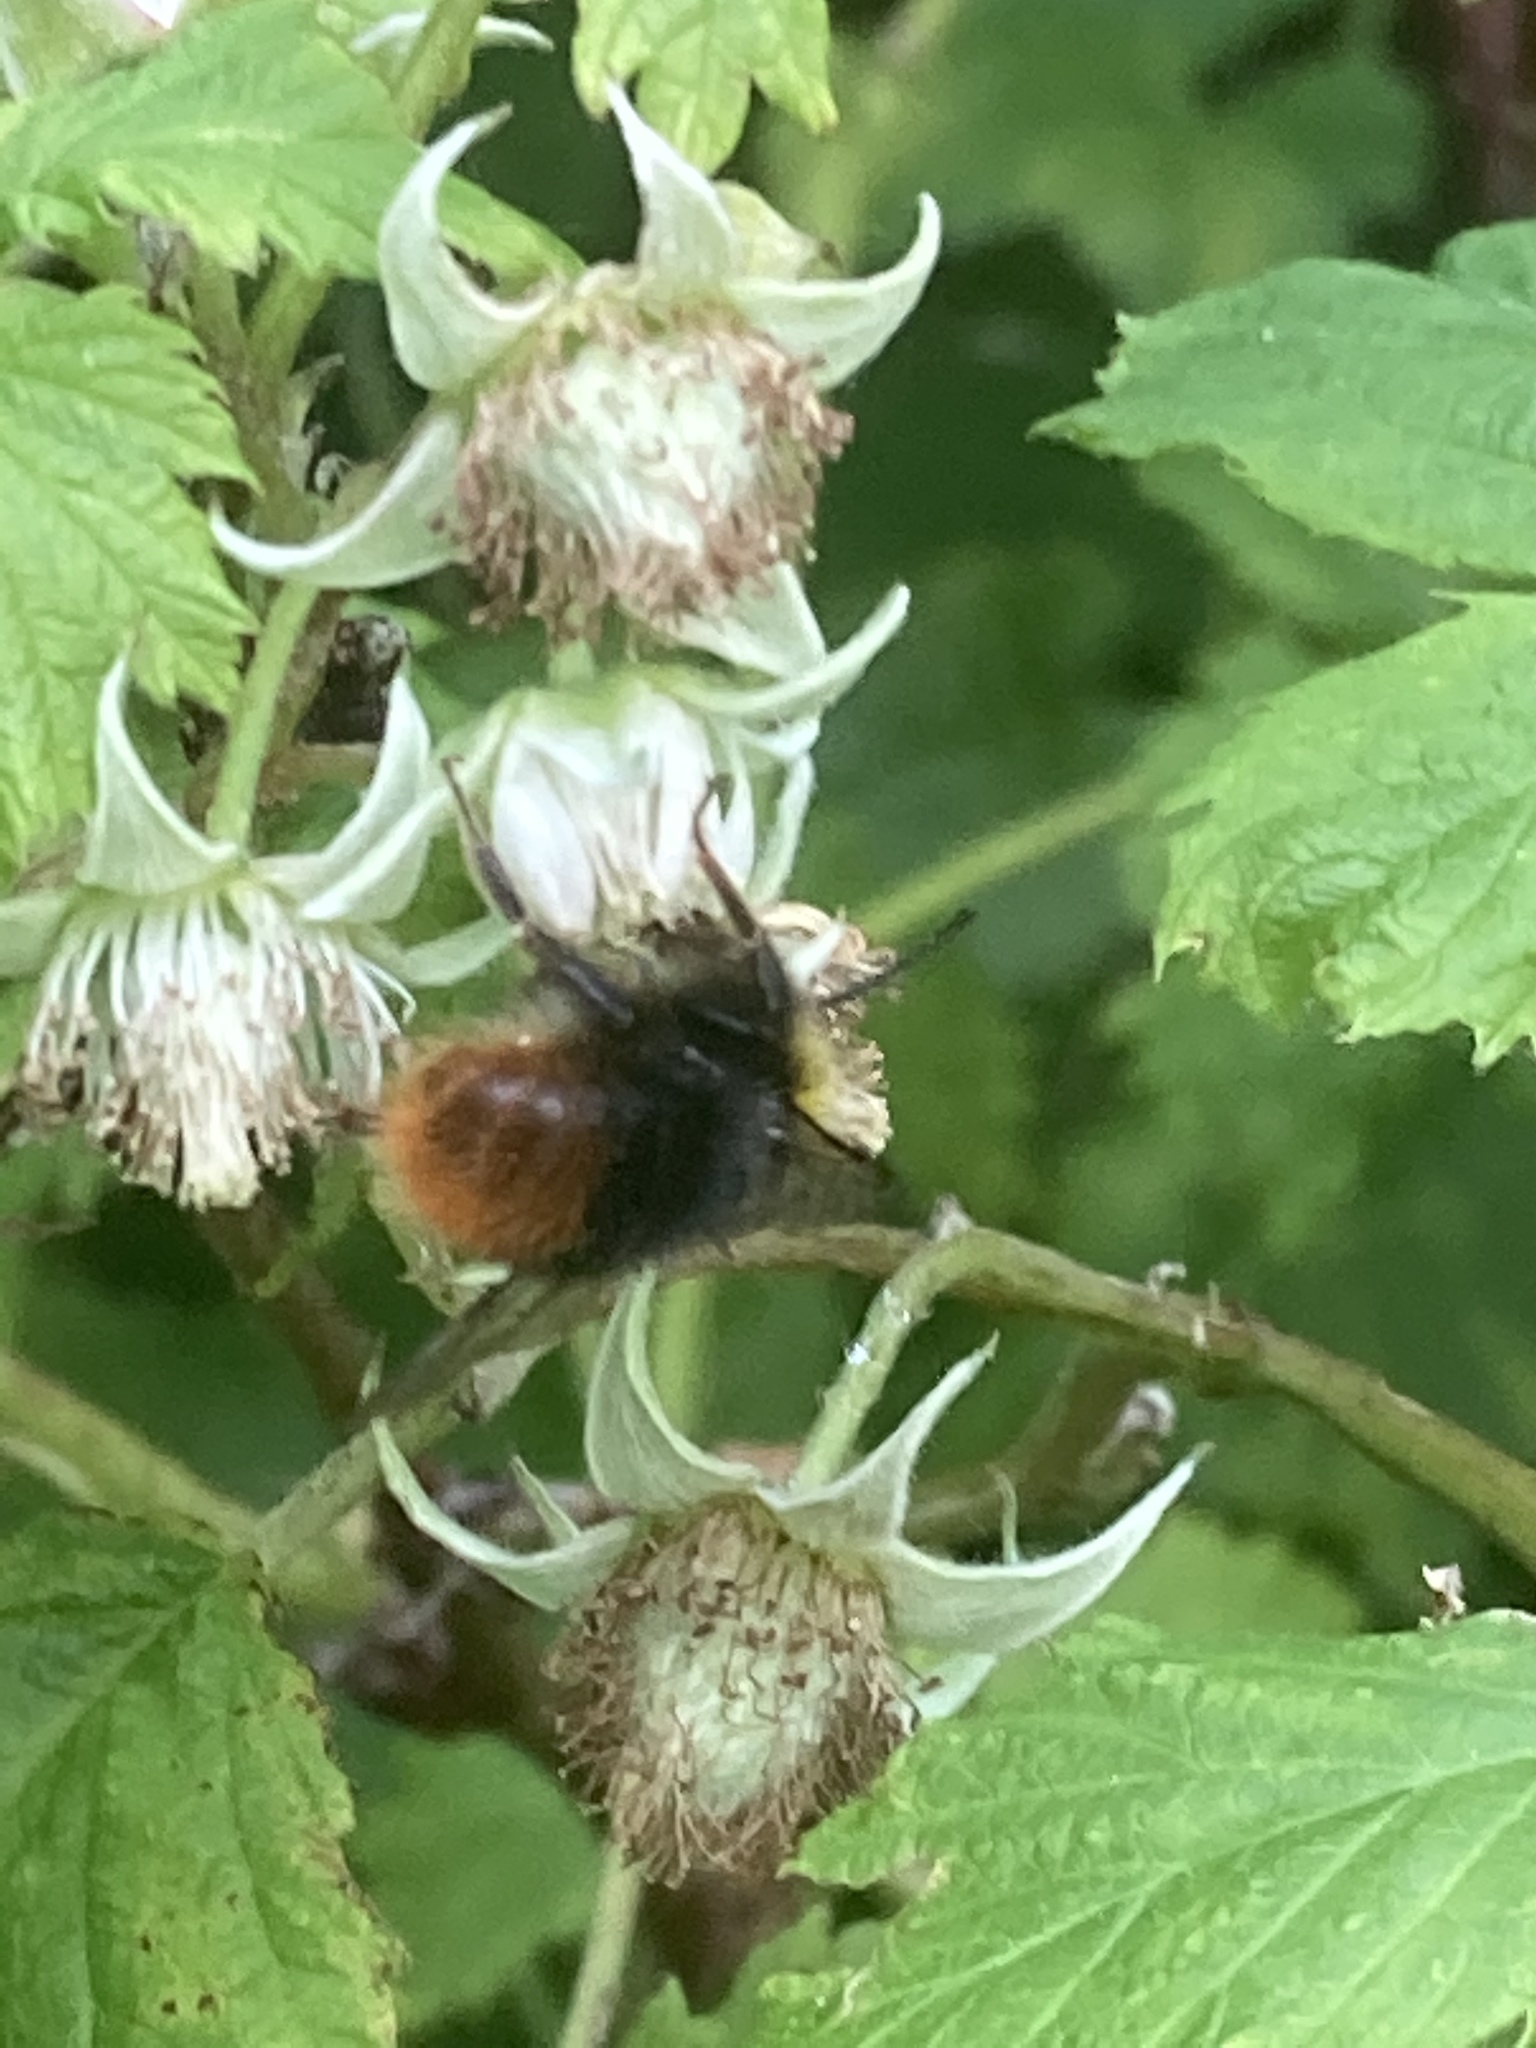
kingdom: Animalia
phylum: Arthropoda
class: Insecta
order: Hymenoptera
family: Apidae
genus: Bombus
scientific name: Bombus pratorum
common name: Early humble-bee
